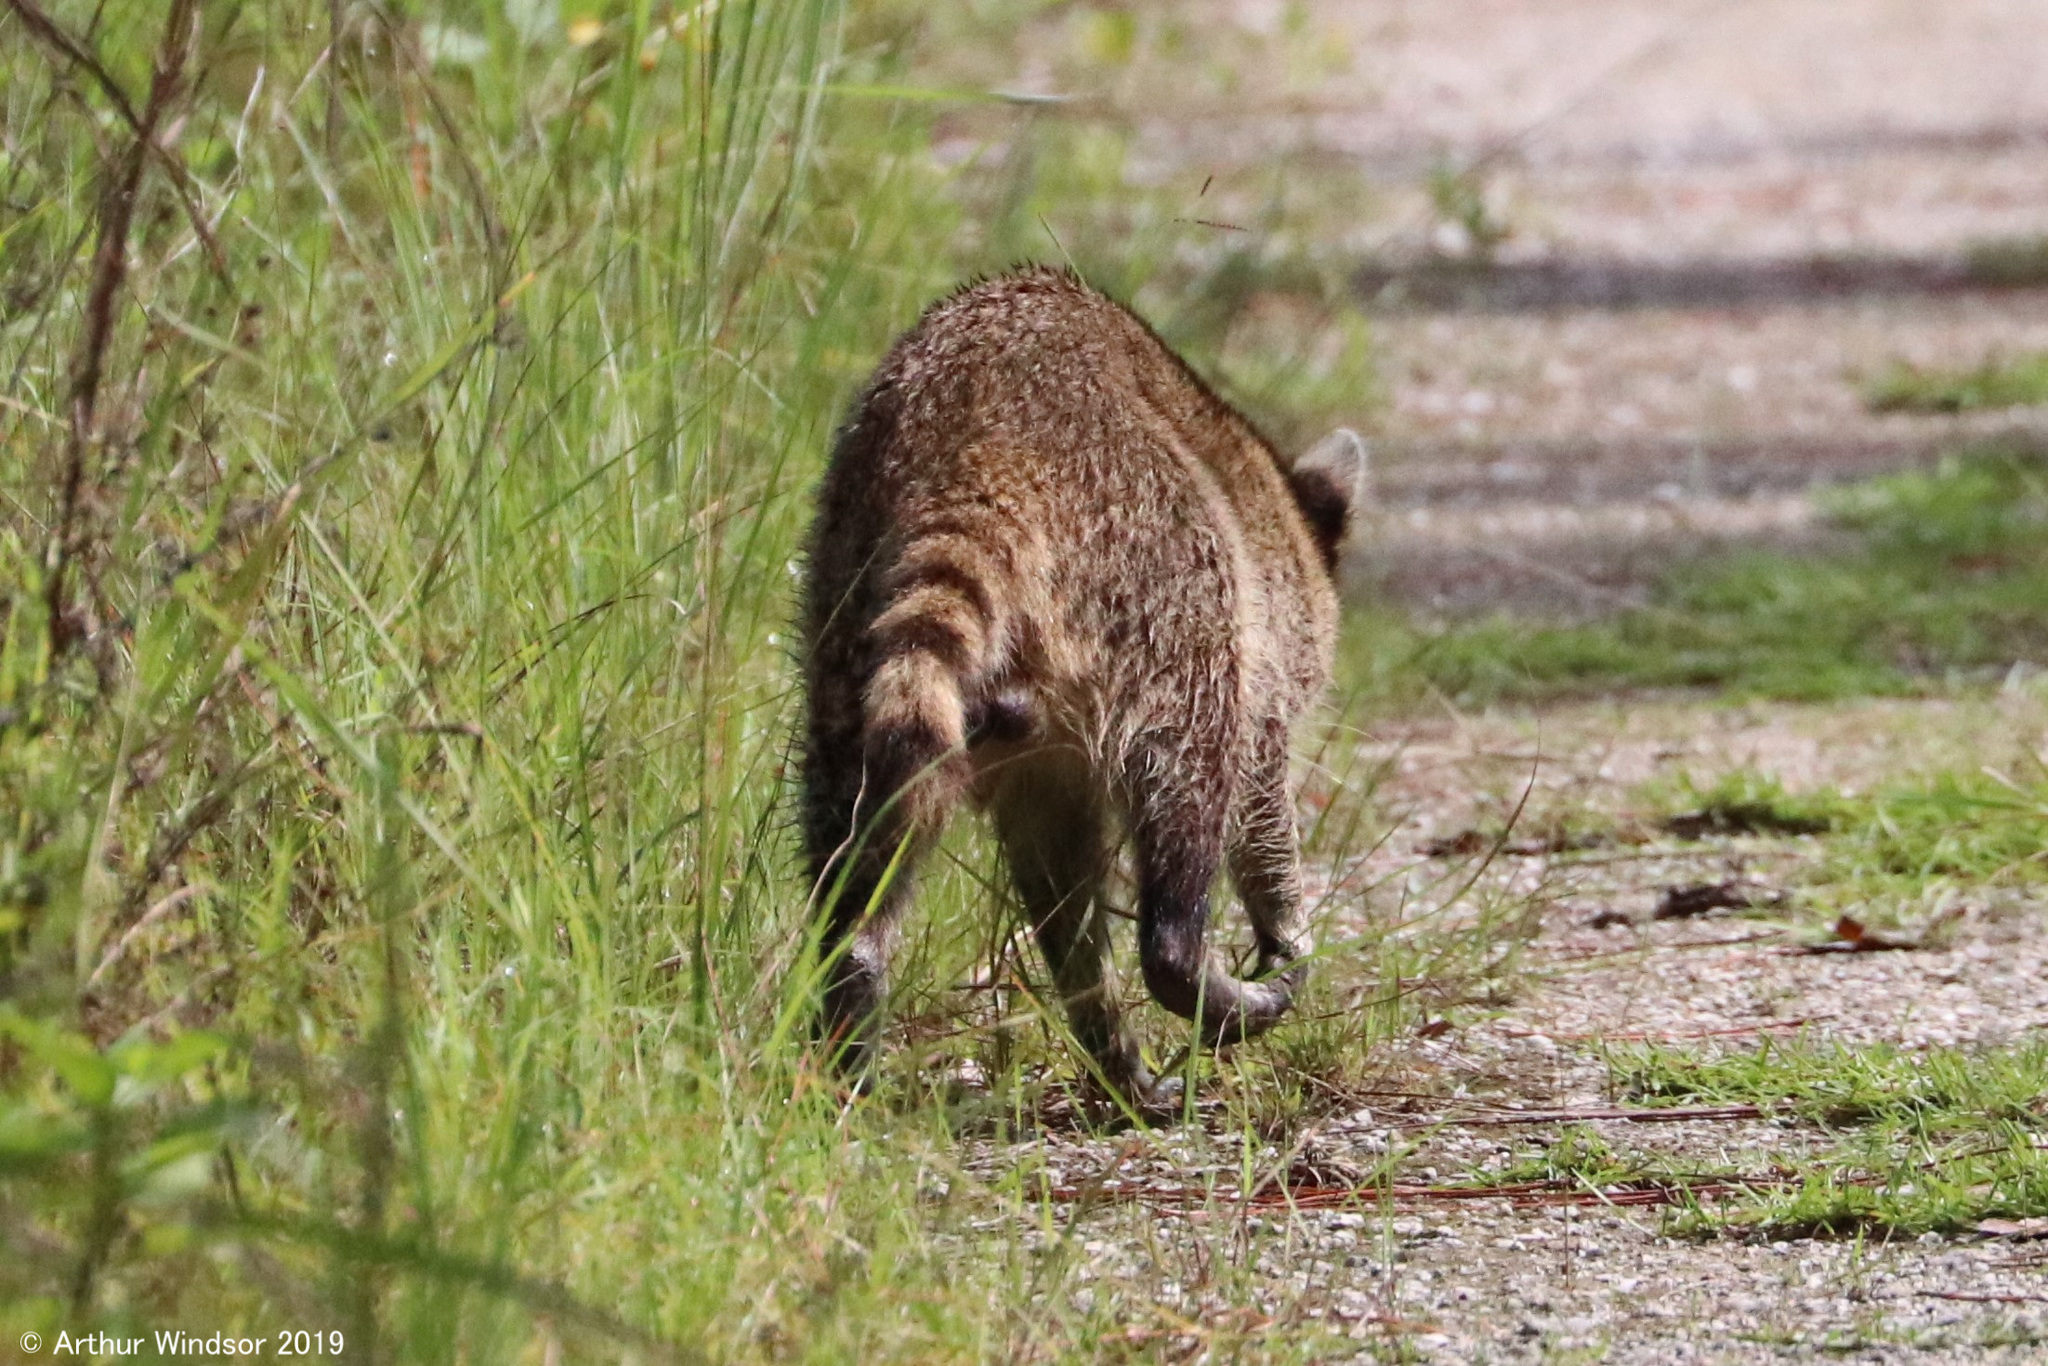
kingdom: Animalia
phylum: Chordata
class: Mammalia
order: Carnivora
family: Procyonidae
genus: Procyon
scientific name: Procyon lotor
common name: Raccoon
